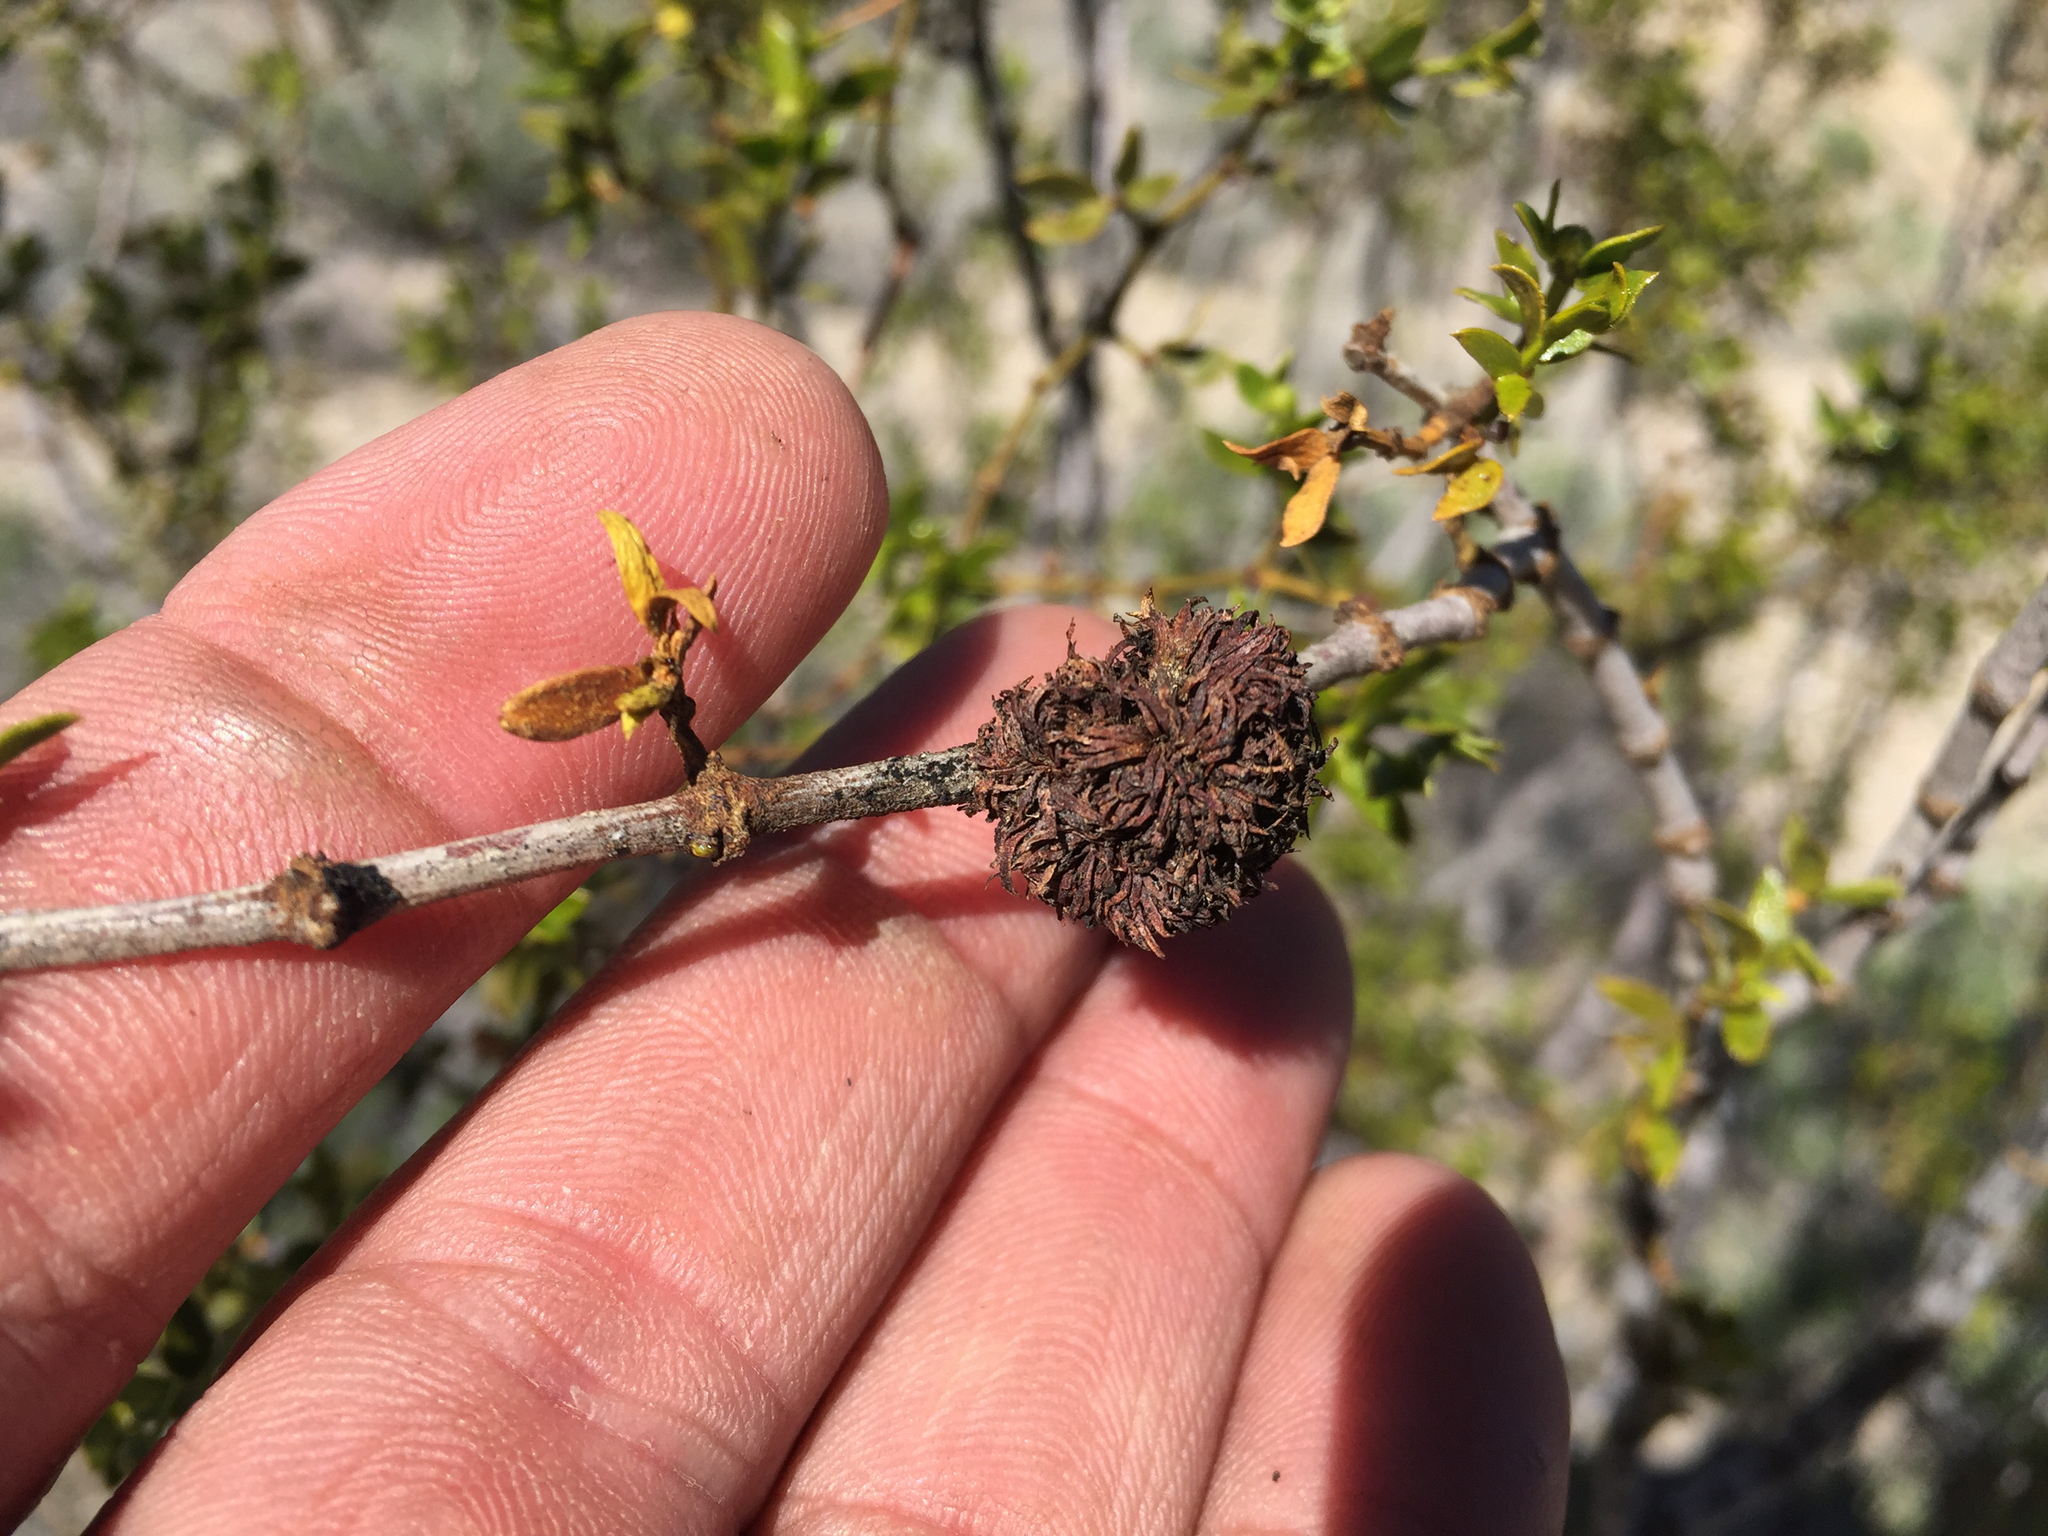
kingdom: Animalia
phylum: Arthropoda
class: Insecta
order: Diptera
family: Cecidomyiidae
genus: Asphondylia
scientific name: Asphondylia auripila
